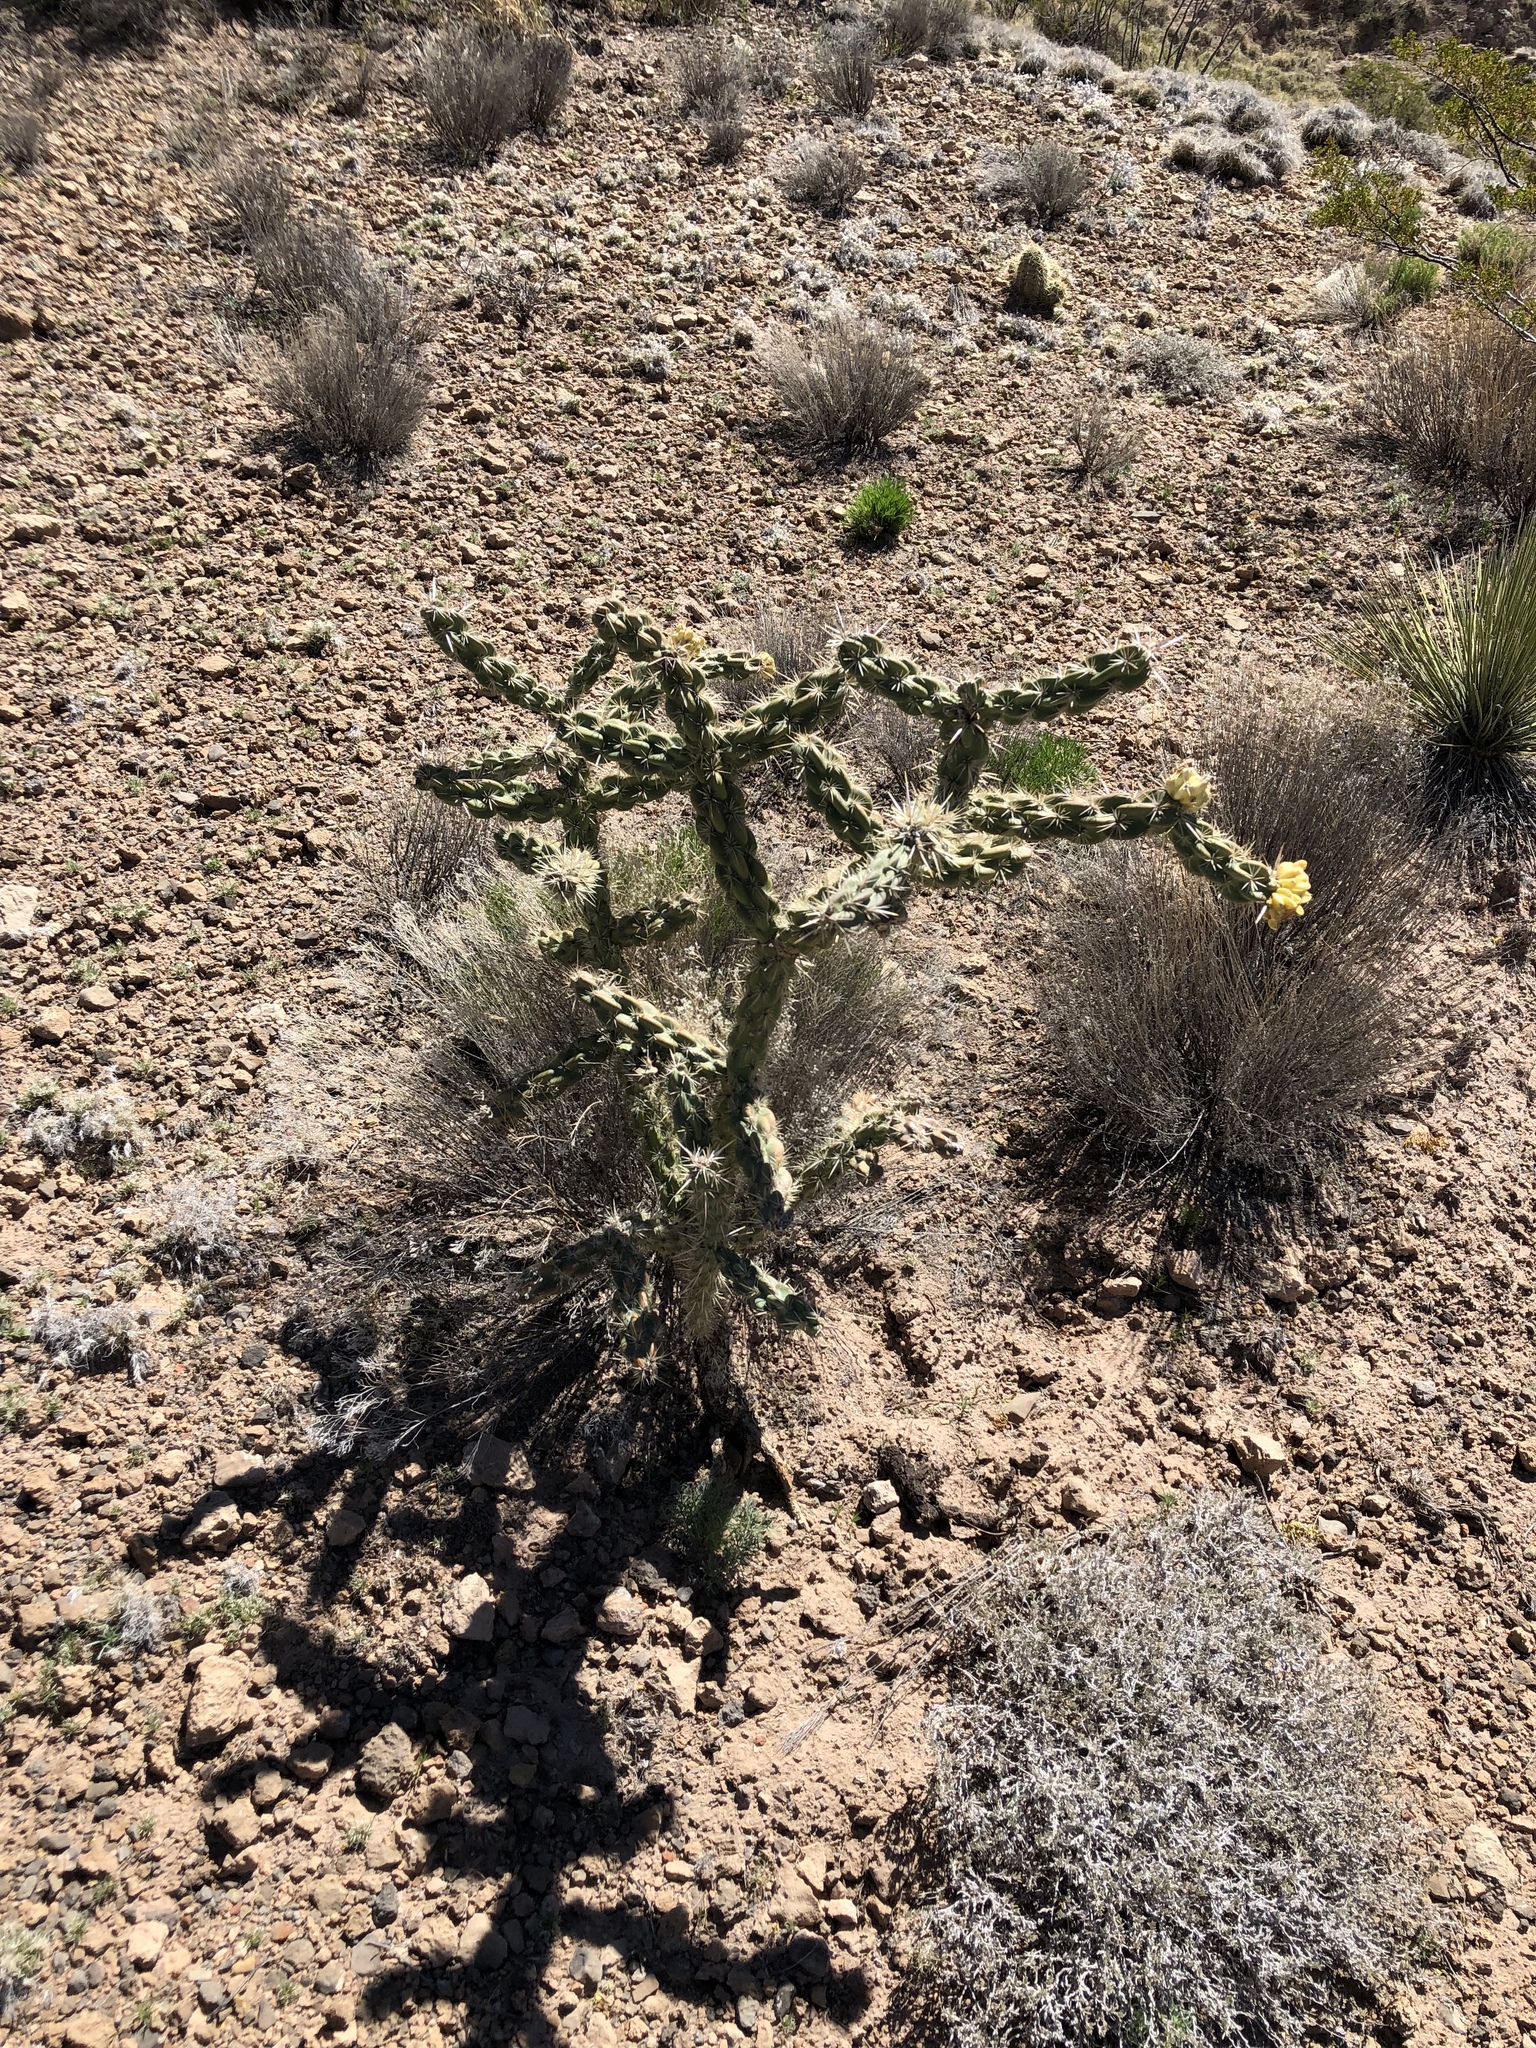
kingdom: Plantae
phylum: Tracheophyta
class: Magnoliopsida
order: Caryophyllales
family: Cactaceae
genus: Cylindropuntia
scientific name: Cylindropuntia imbricata
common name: Candelabrum cactus
